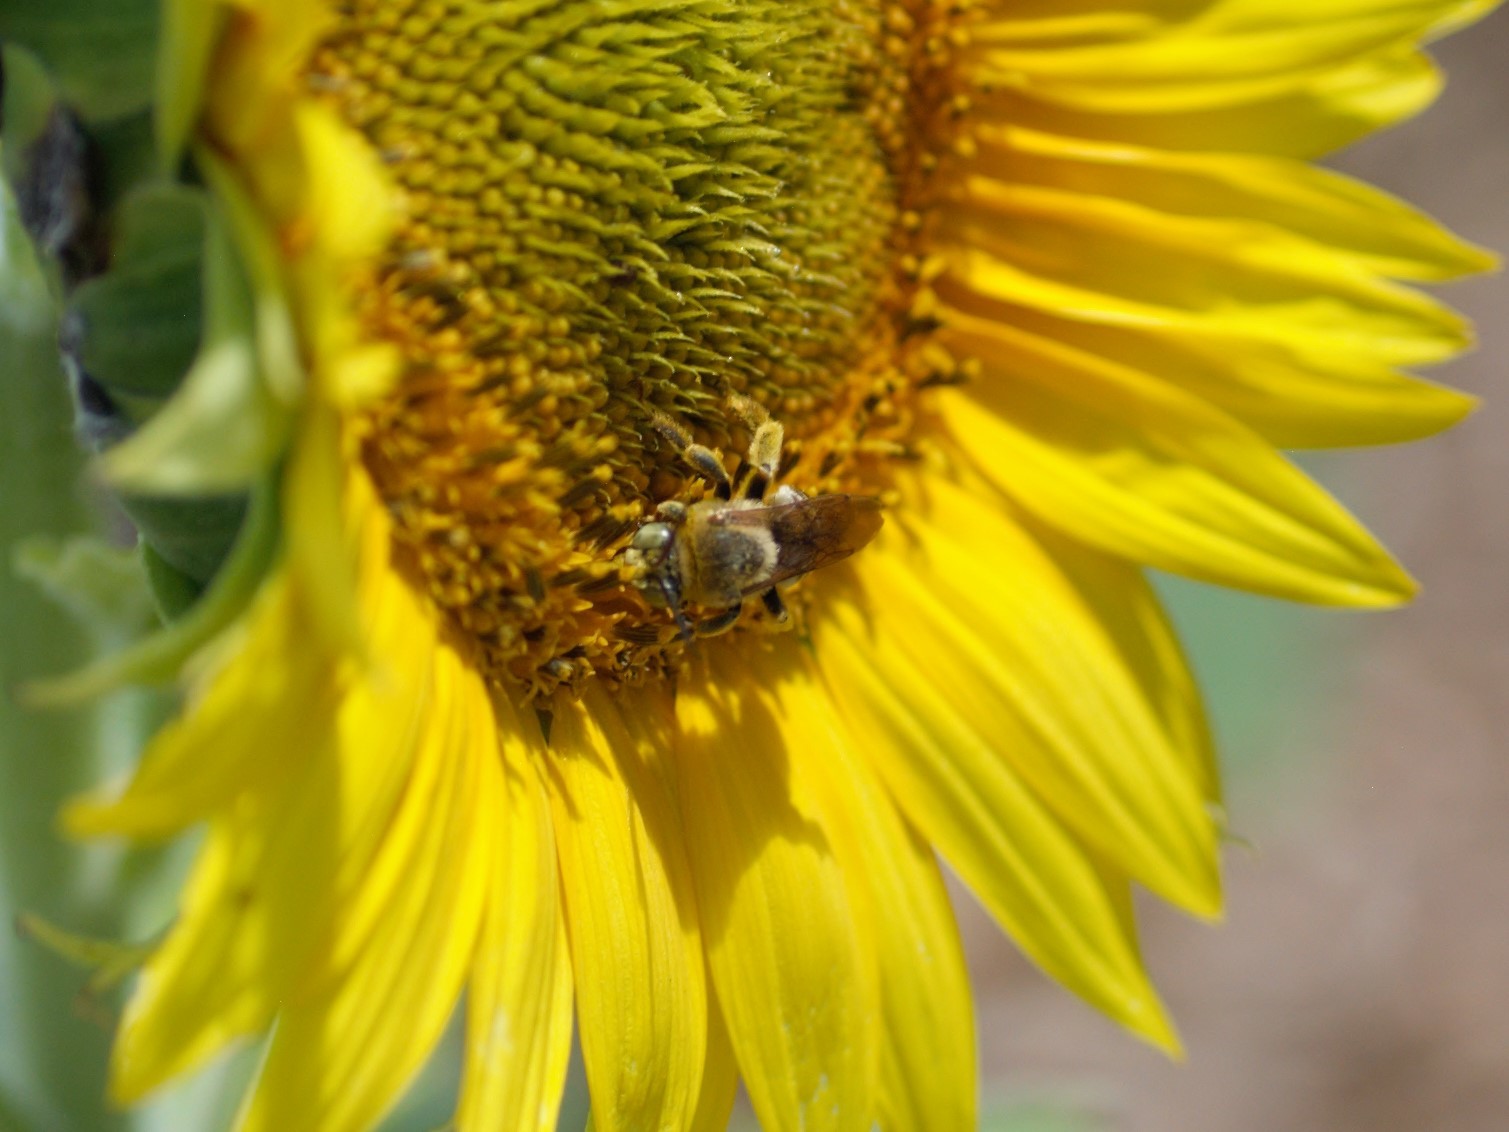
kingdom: Animalia
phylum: Arthropoda
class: Insecta
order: Hymenoptera
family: Apidae
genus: Svastra
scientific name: Svastra obliqua
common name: Oblique longhorn
